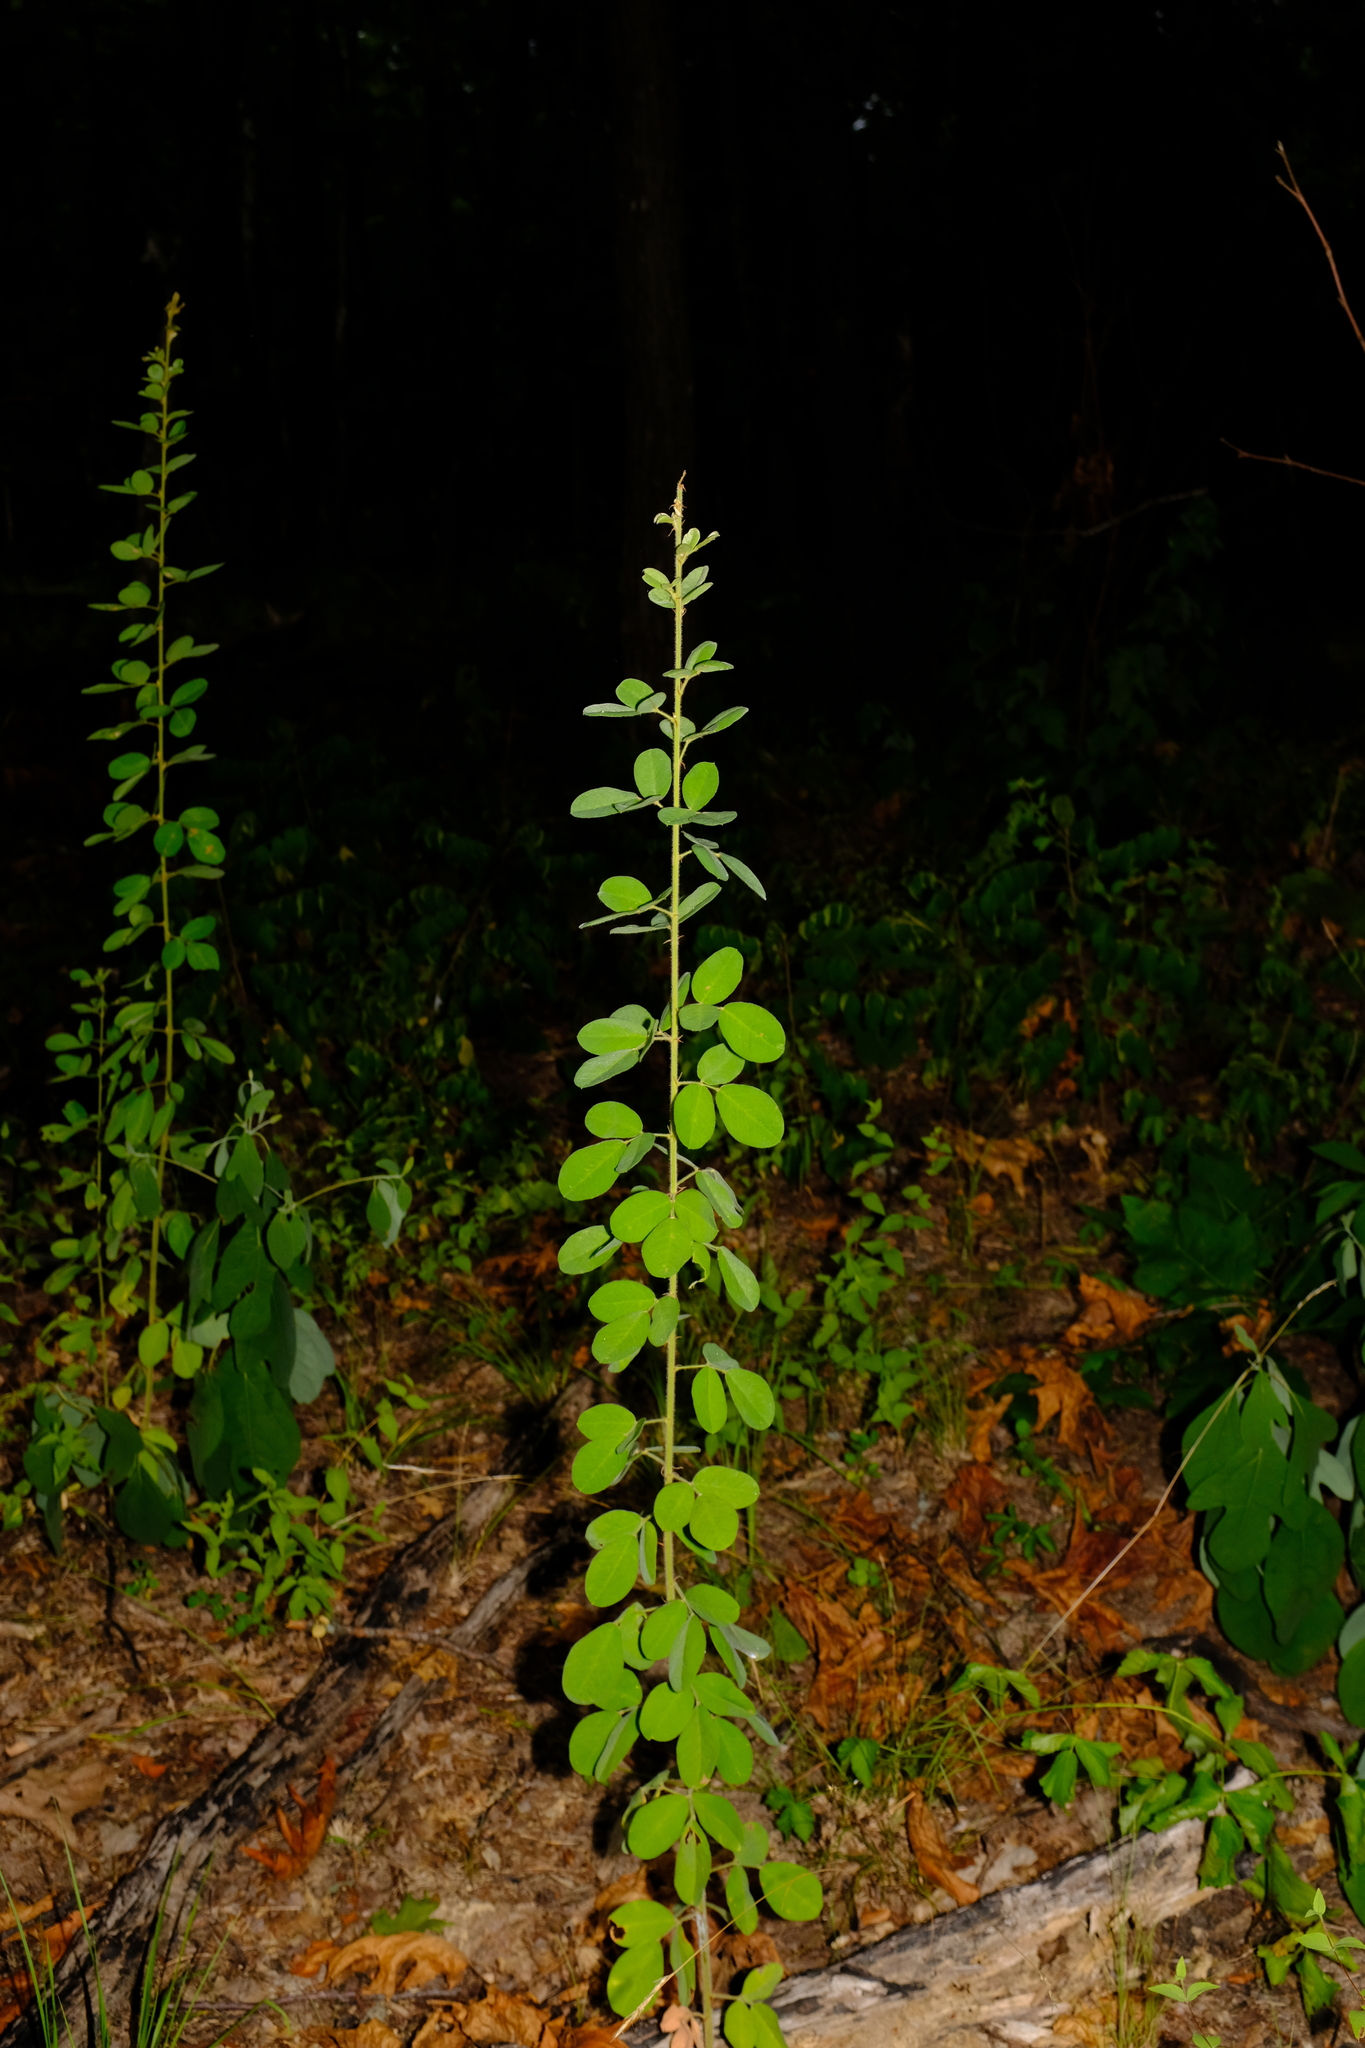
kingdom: Plantae
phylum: Tracheophyta
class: Magnoliopsida
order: Fabales
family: Fabaceae
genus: Lespedeza
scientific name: Lespedeza hirta
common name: Hairy lespedeza
